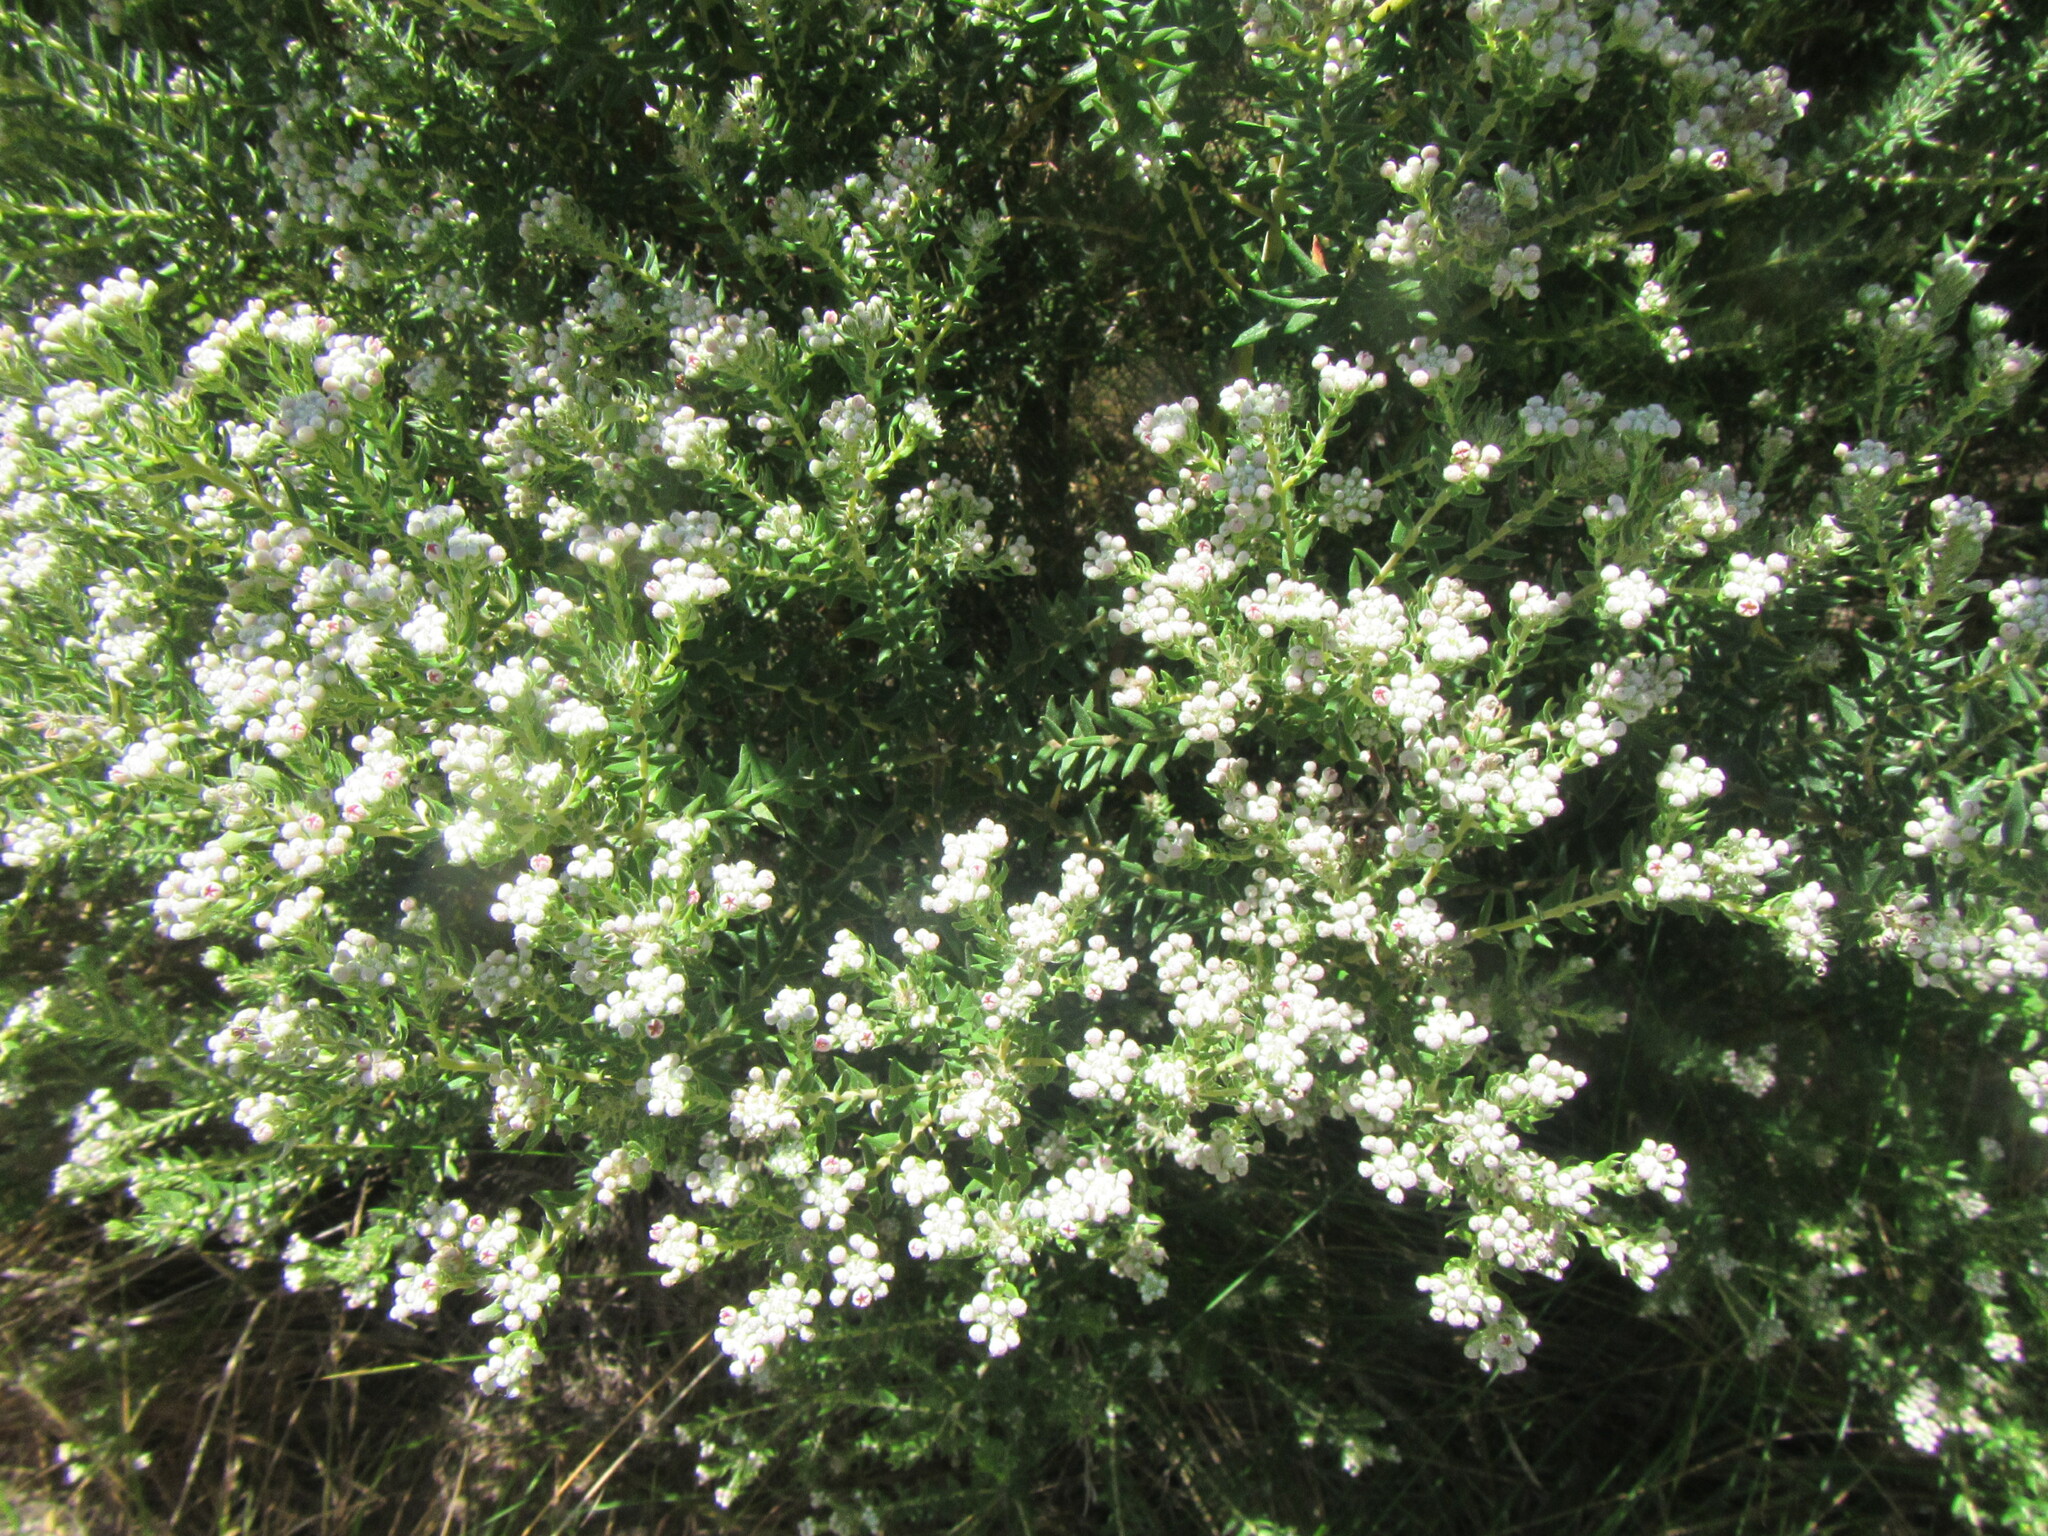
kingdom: Plantae
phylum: Tracheophyta
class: Magnoliopsida
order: Rosales
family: Rhamnaceae
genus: Phylica
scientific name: Phylica pinea
